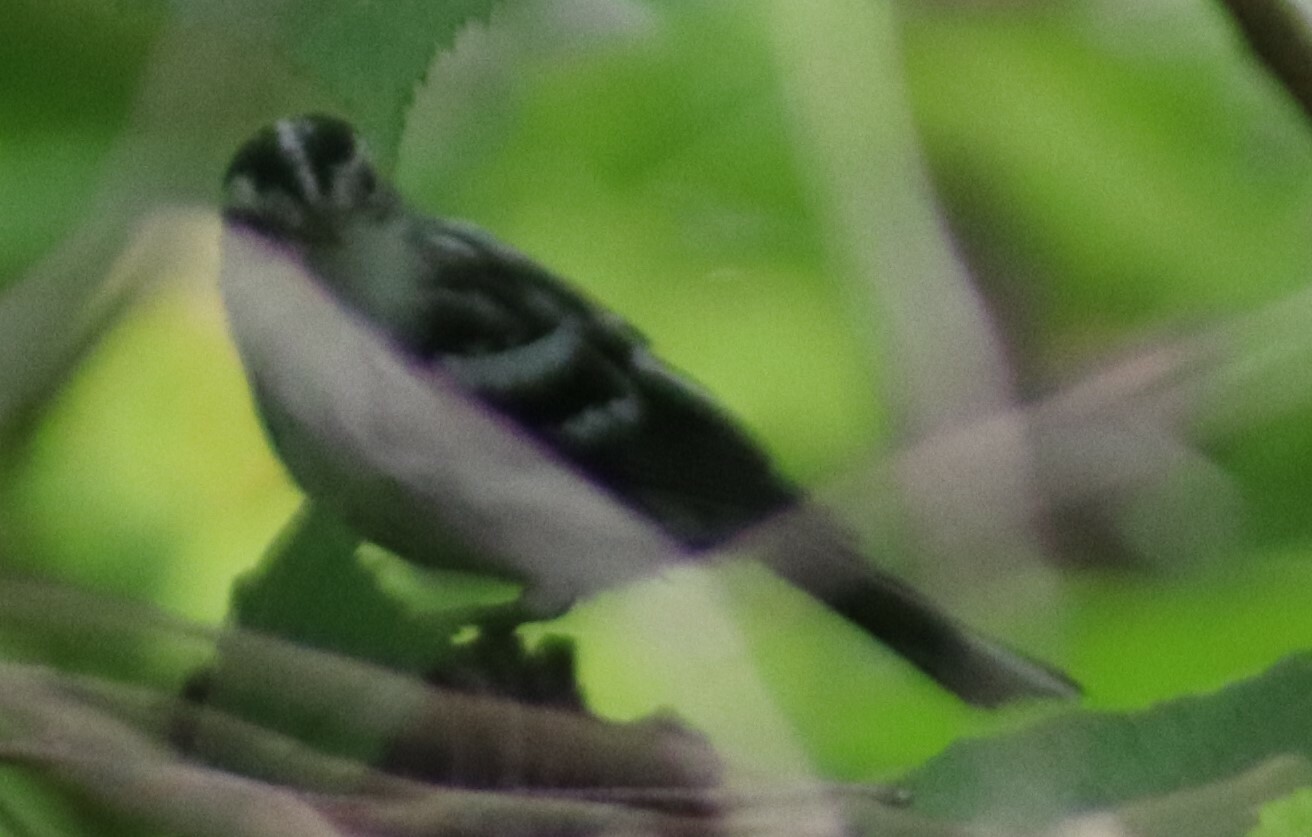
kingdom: Animalia
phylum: Chordata
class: Aves
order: Passeriformes
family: Parulidae
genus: Mniotilta
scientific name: Mniotilta varia
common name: Black-and-white warbler
